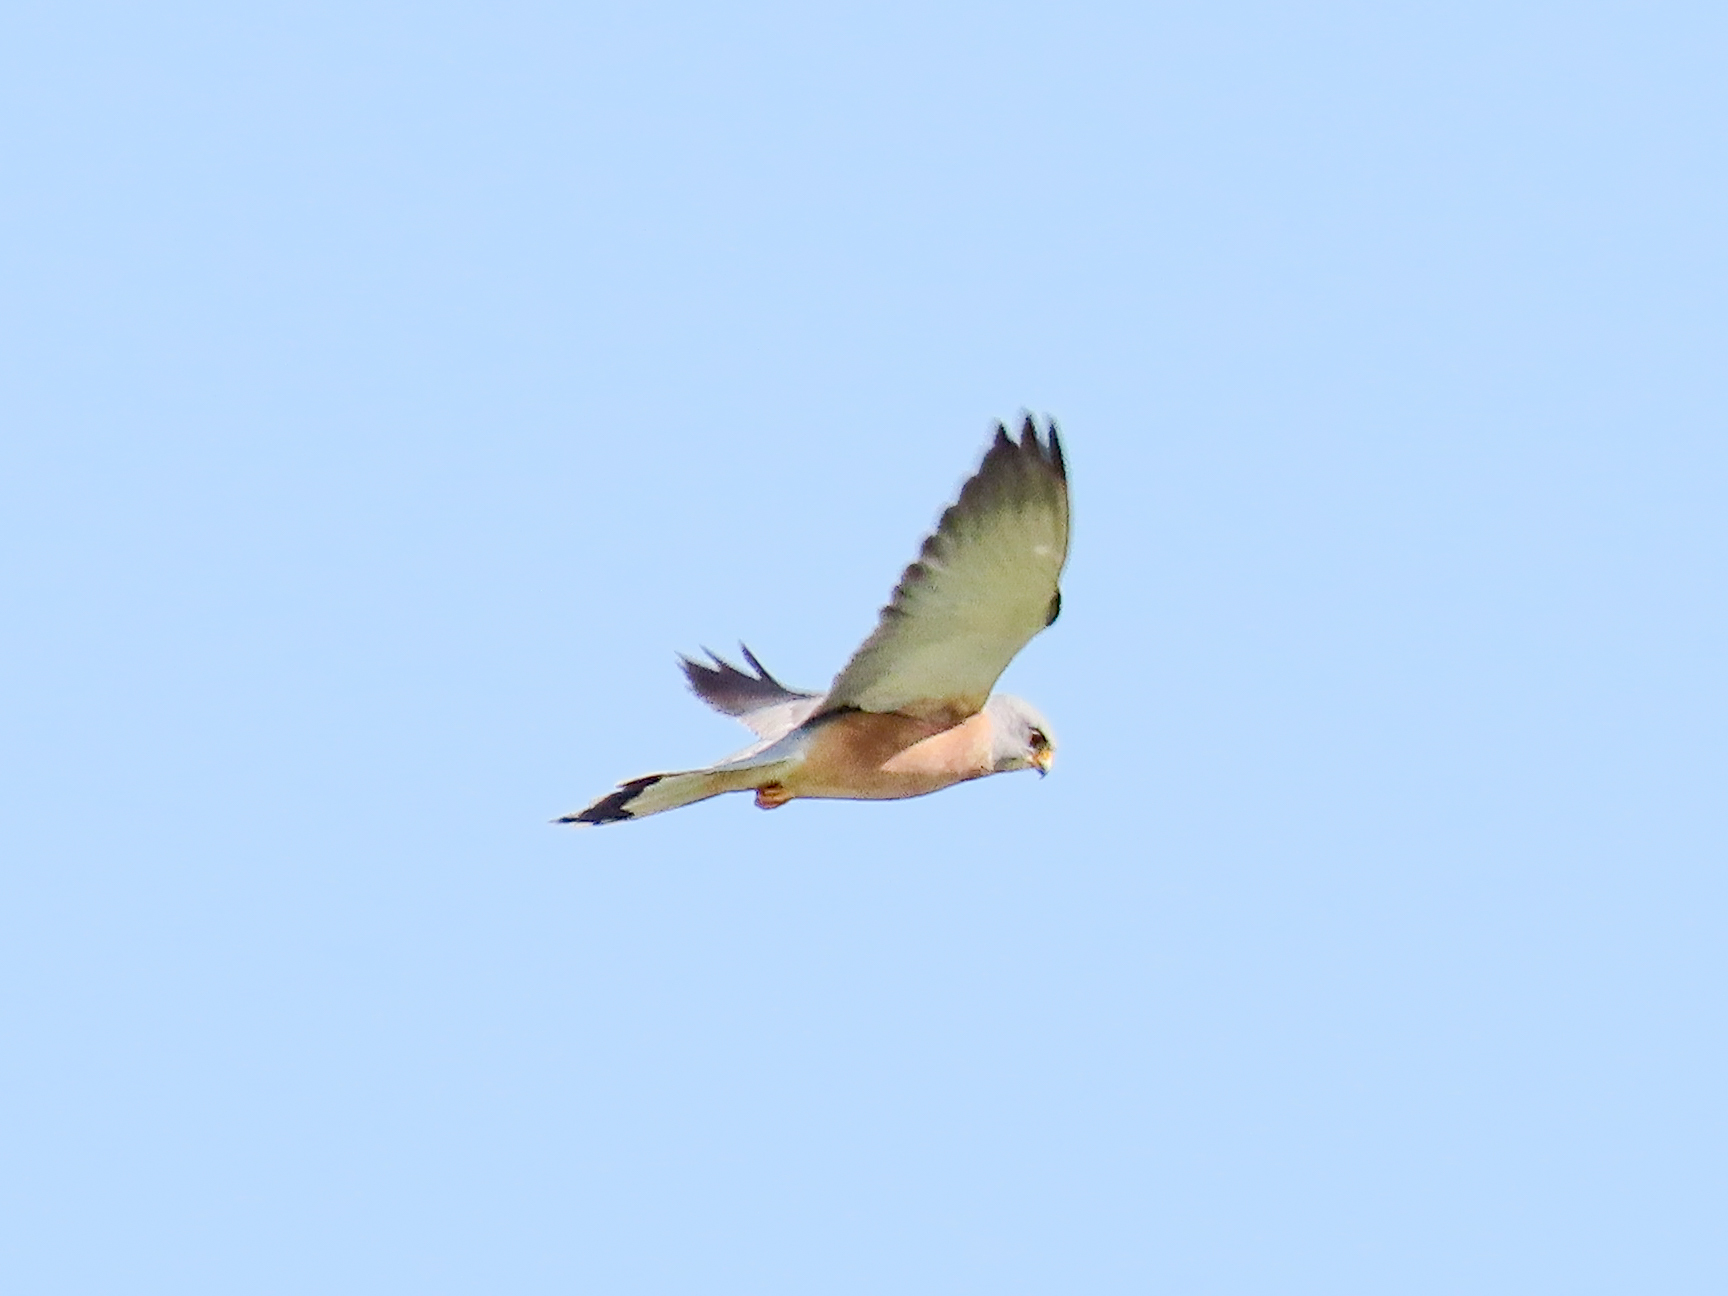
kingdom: Animalia
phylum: Chordata
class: Aves
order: Falconiformes
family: Falconidae
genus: Falco
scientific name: Falco naumanni
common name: Lesser kestrel
